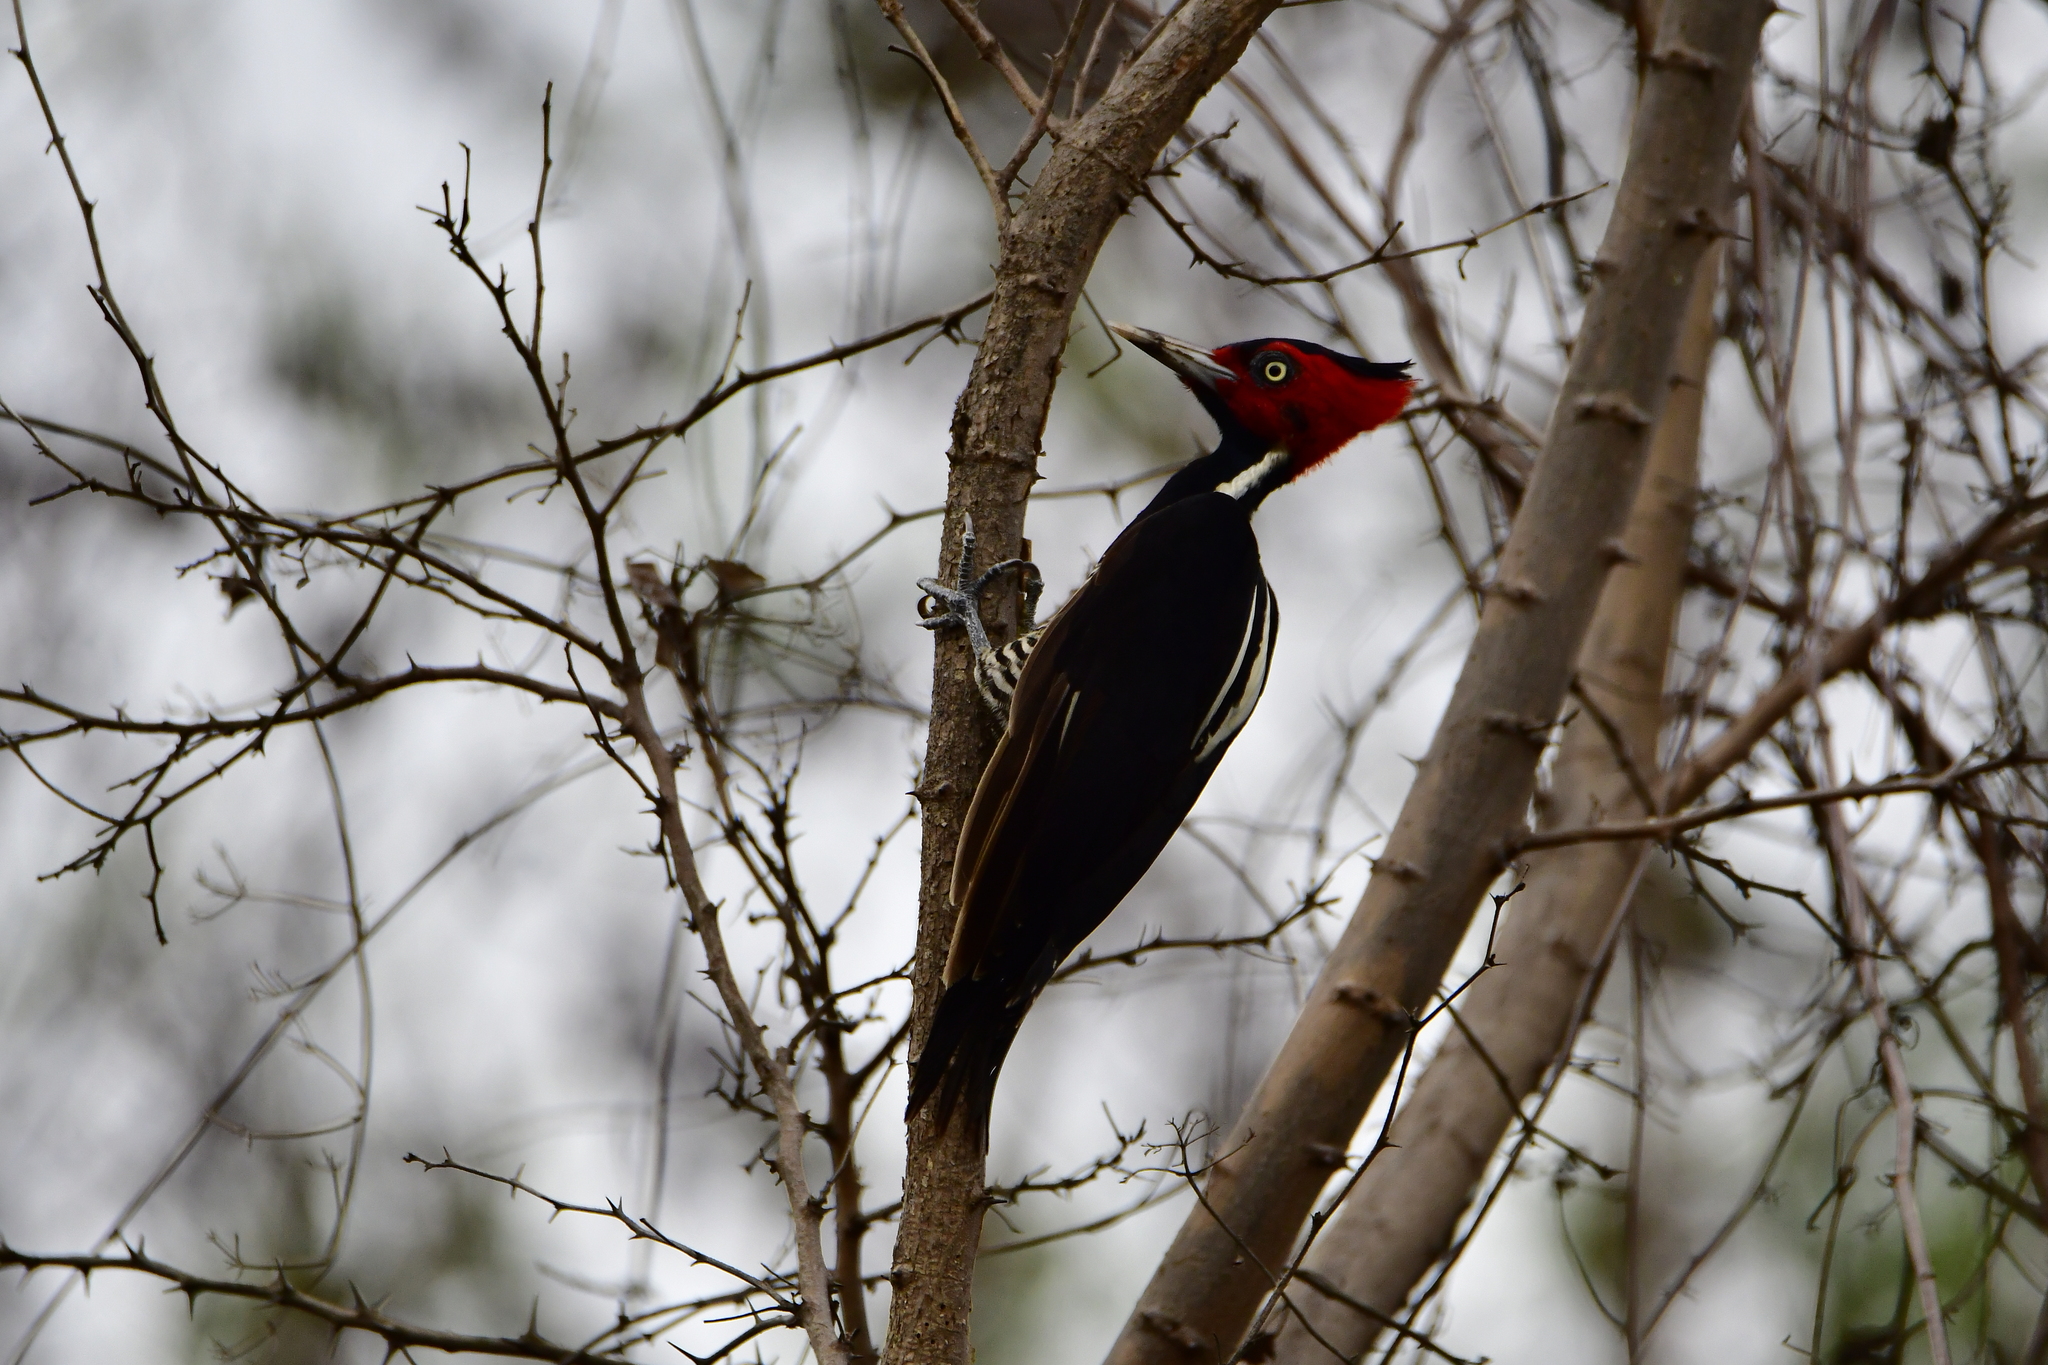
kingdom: Animalia
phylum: Chordata
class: Aves
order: Piciformes
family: Picidae
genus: Campephilus
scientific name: Campephilus guatemalensis
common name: Pale-billed woodpecker
